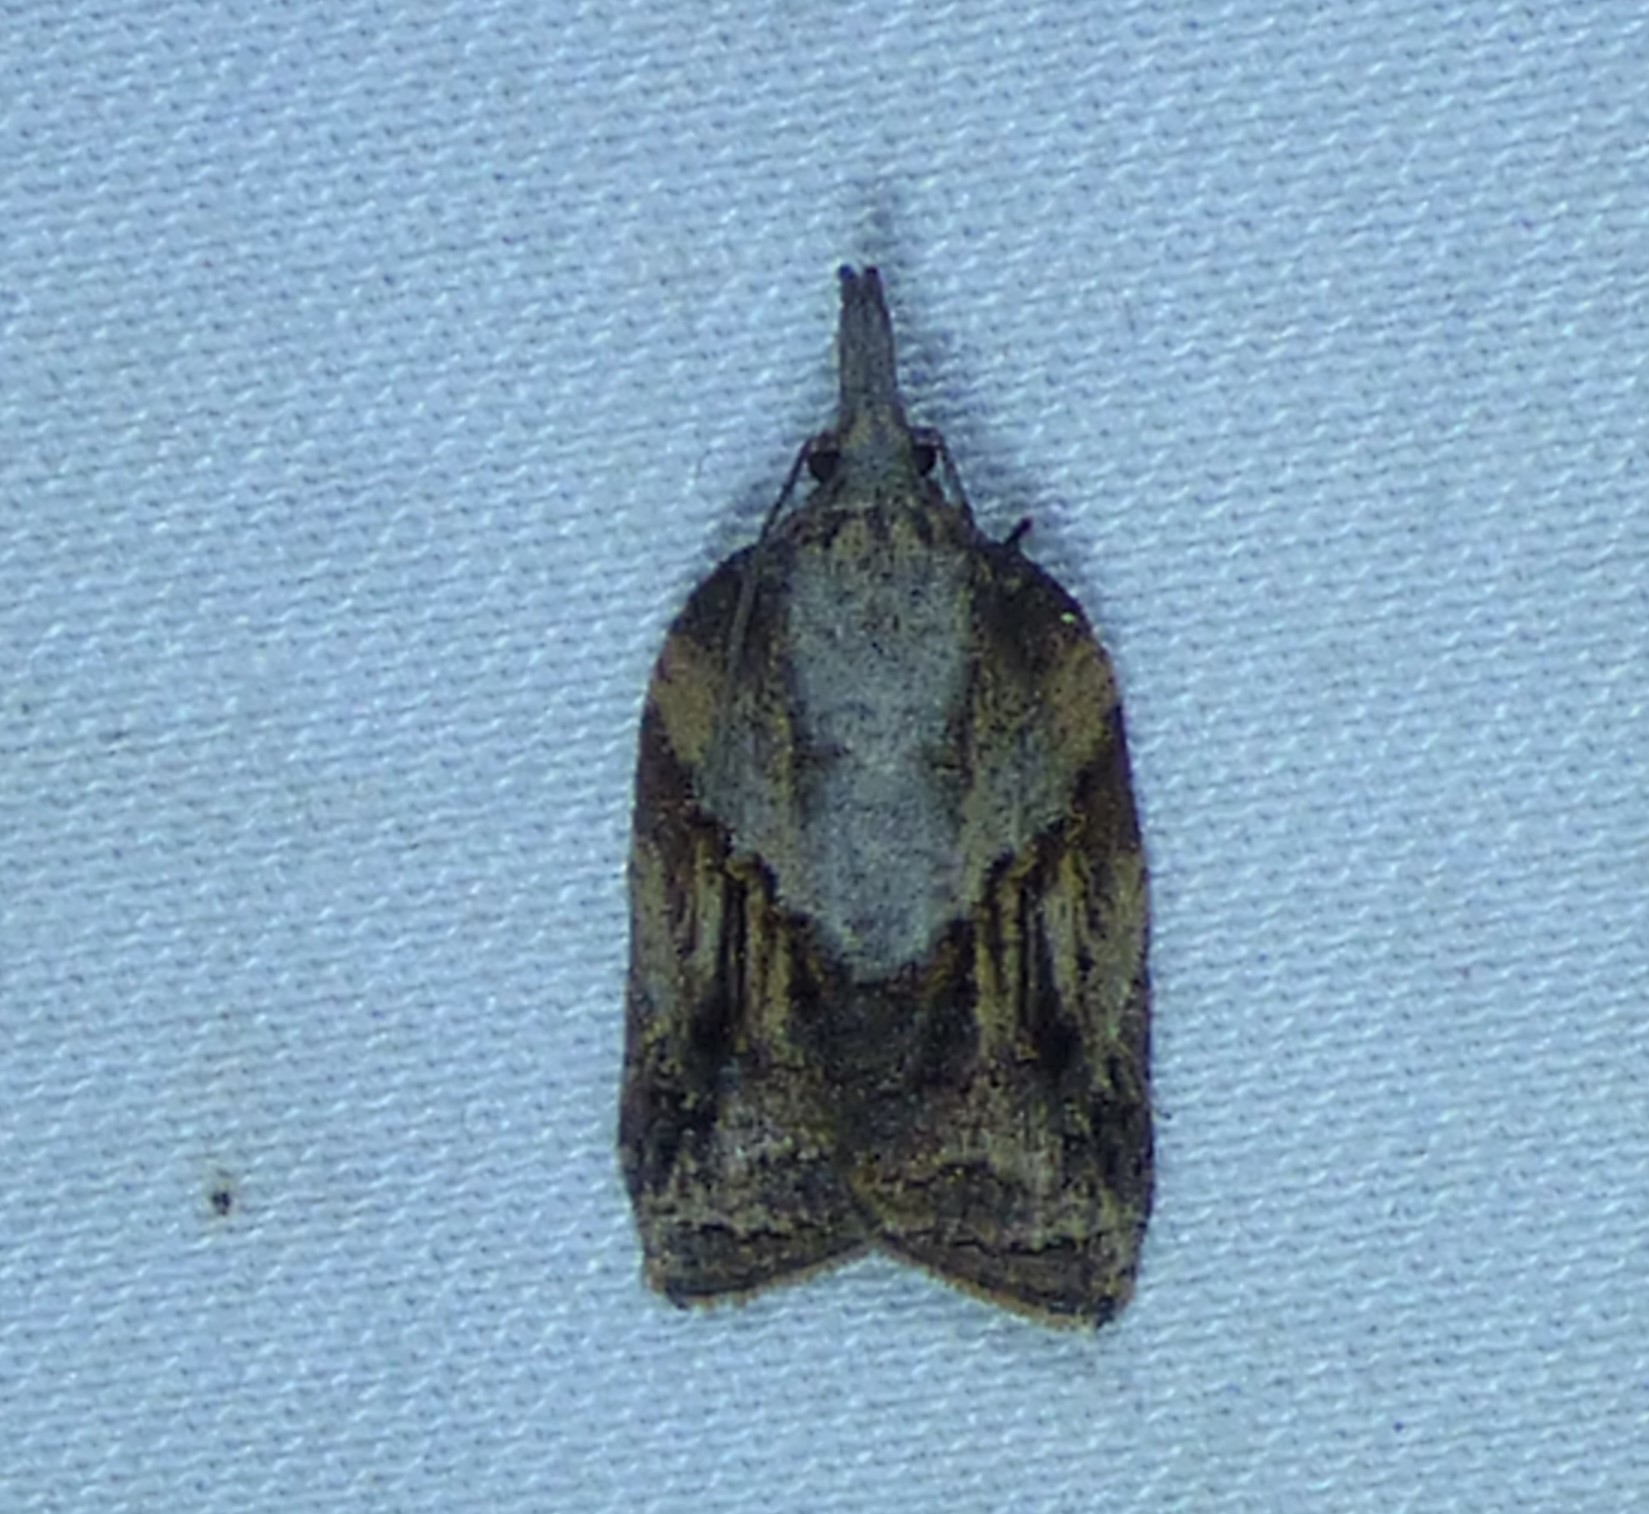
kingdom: Animalia
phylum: Arthropoda
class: Insecta
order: Lepidoptera
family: Tortricidae
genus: Platynota
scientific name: Platynota idaeusalis
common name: Tufted apple bud moth
